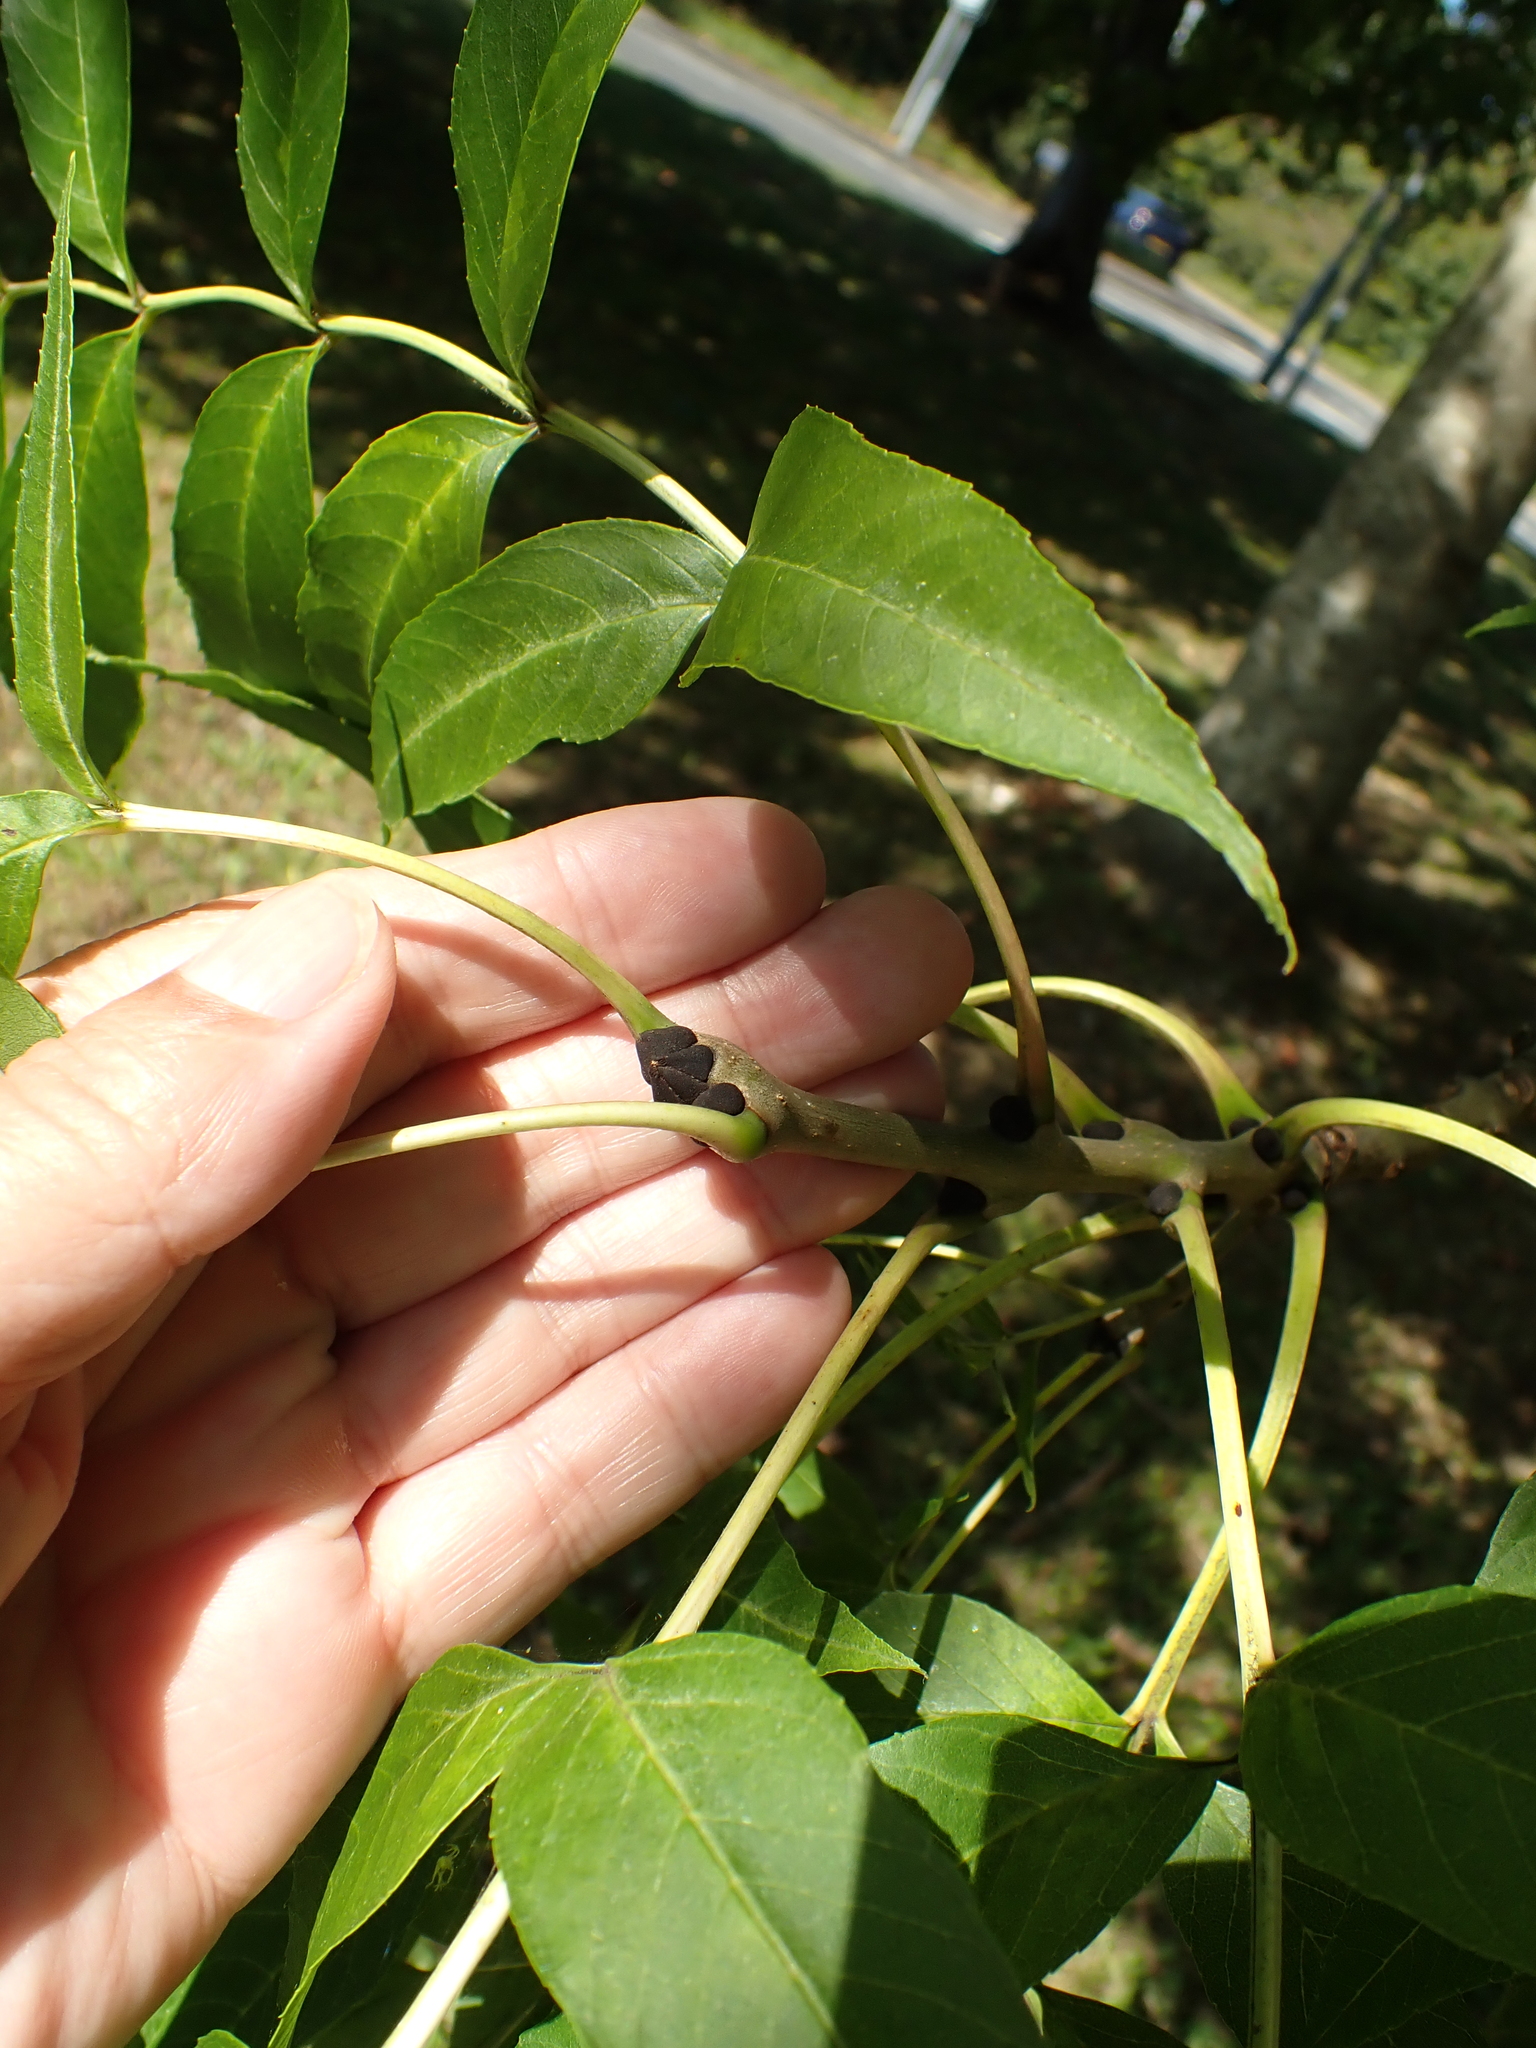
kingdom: Plantae
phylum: Tracheophyta
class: Magnoliopsida
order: Lamiales
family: Oleaceae
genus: Fraxinus
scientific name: Fraxinus excelsior
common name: European ash
